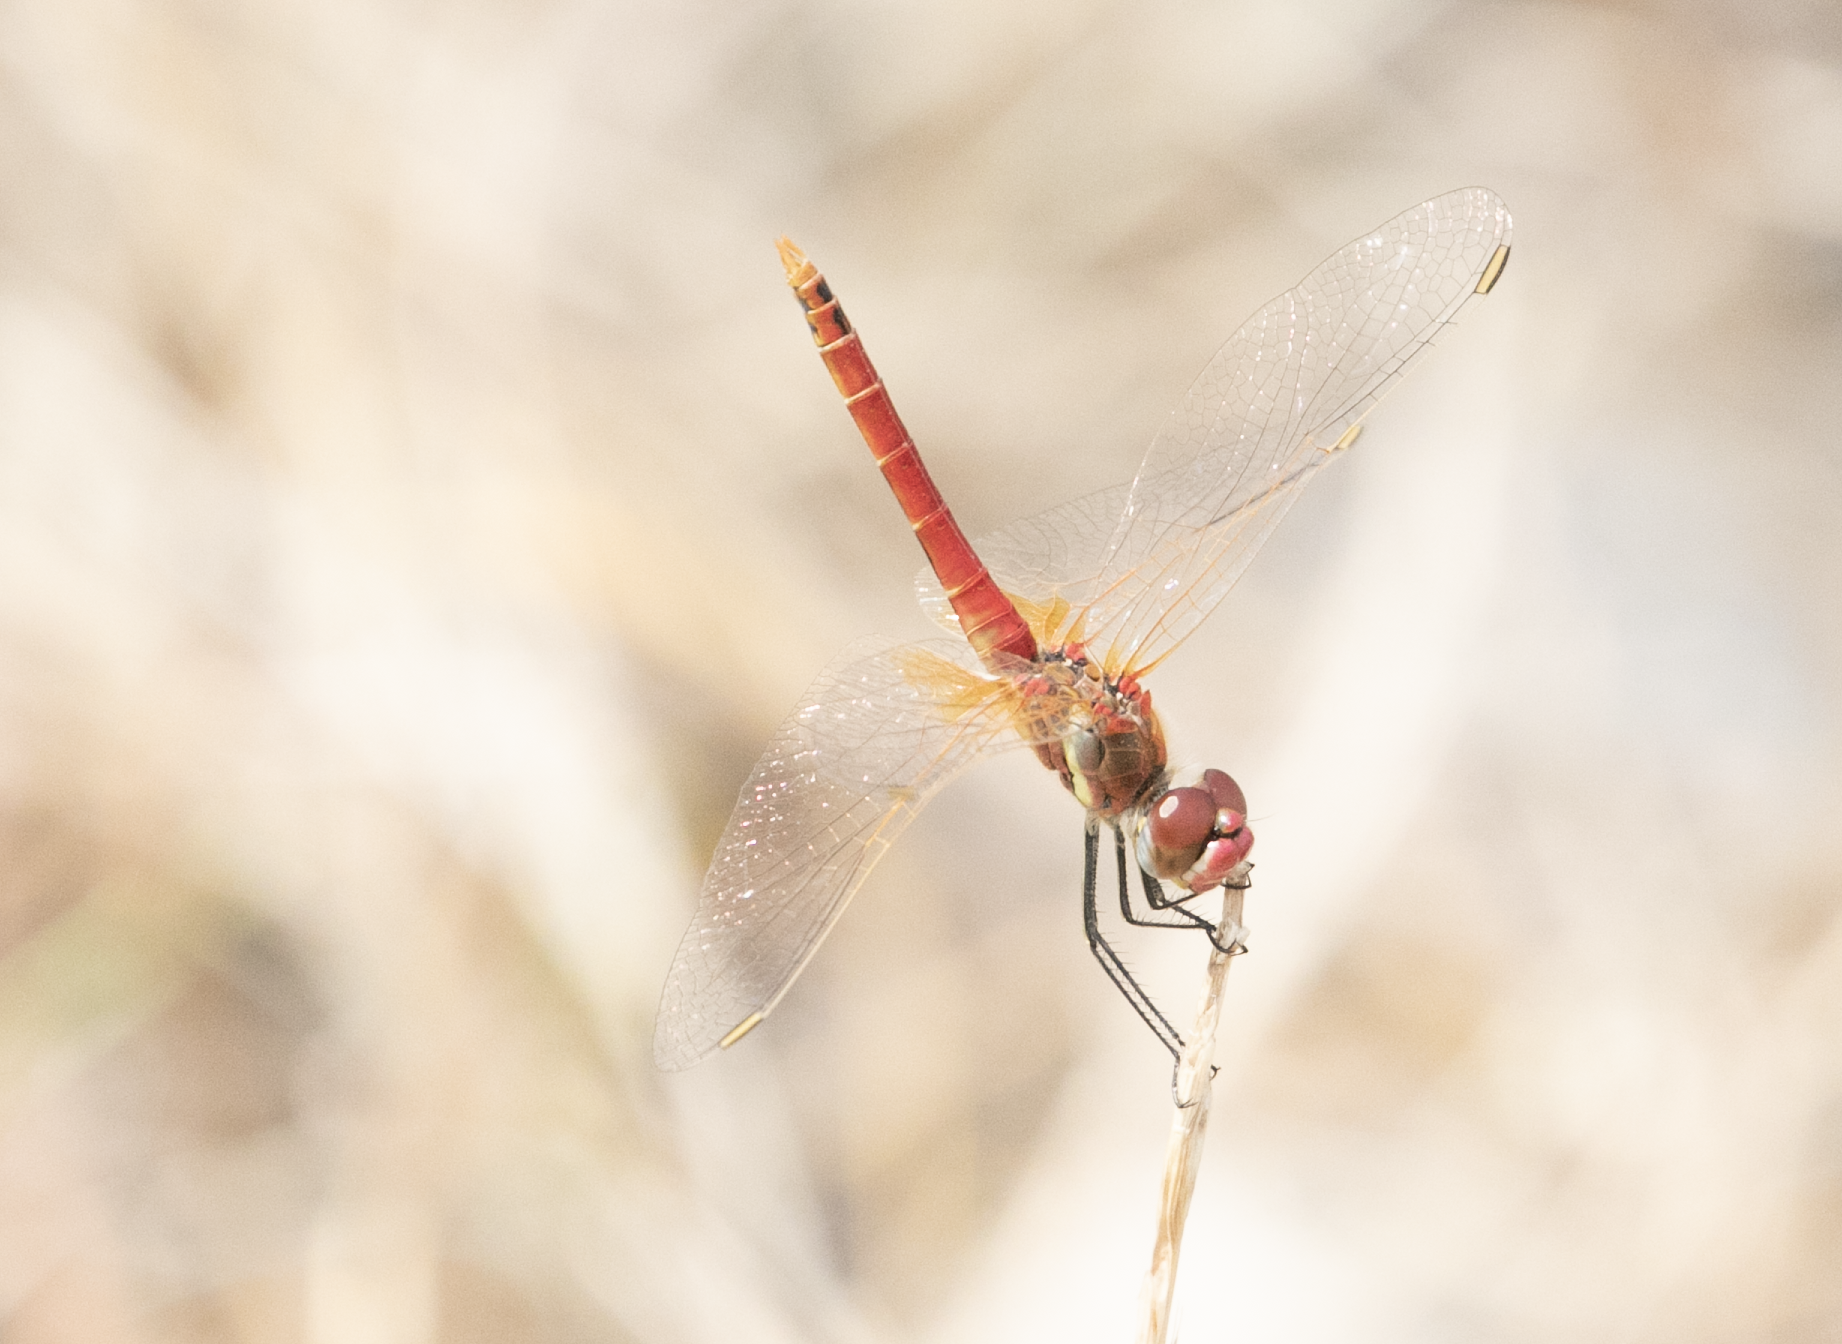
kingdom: Animalia
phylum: Arthropoda
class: Insecta
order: Odonata
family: Libellulidae
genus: Sympetrum
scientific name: Sympetrum fonscolombii
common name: Red-veined darter
